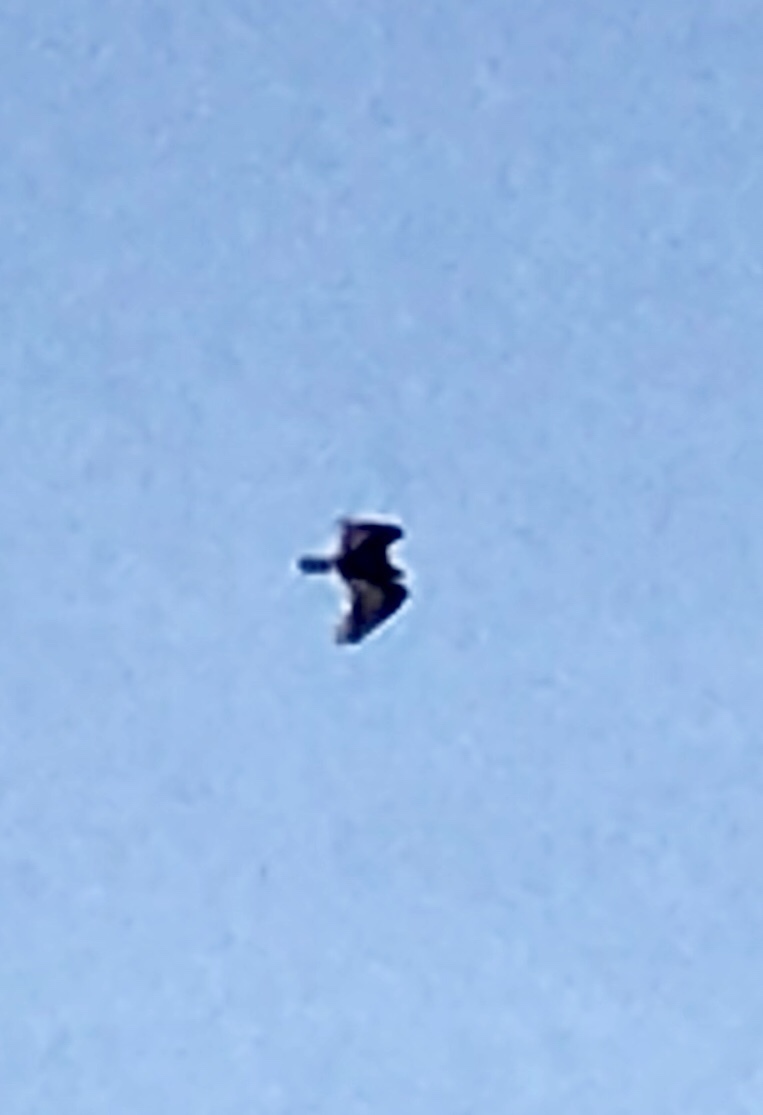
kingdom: Animalia
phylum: Chordata
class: Aves
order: Accipitriformes
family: Cathartidae
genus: Cathartes
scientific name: Cathartes aura
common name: Turkey vulture
